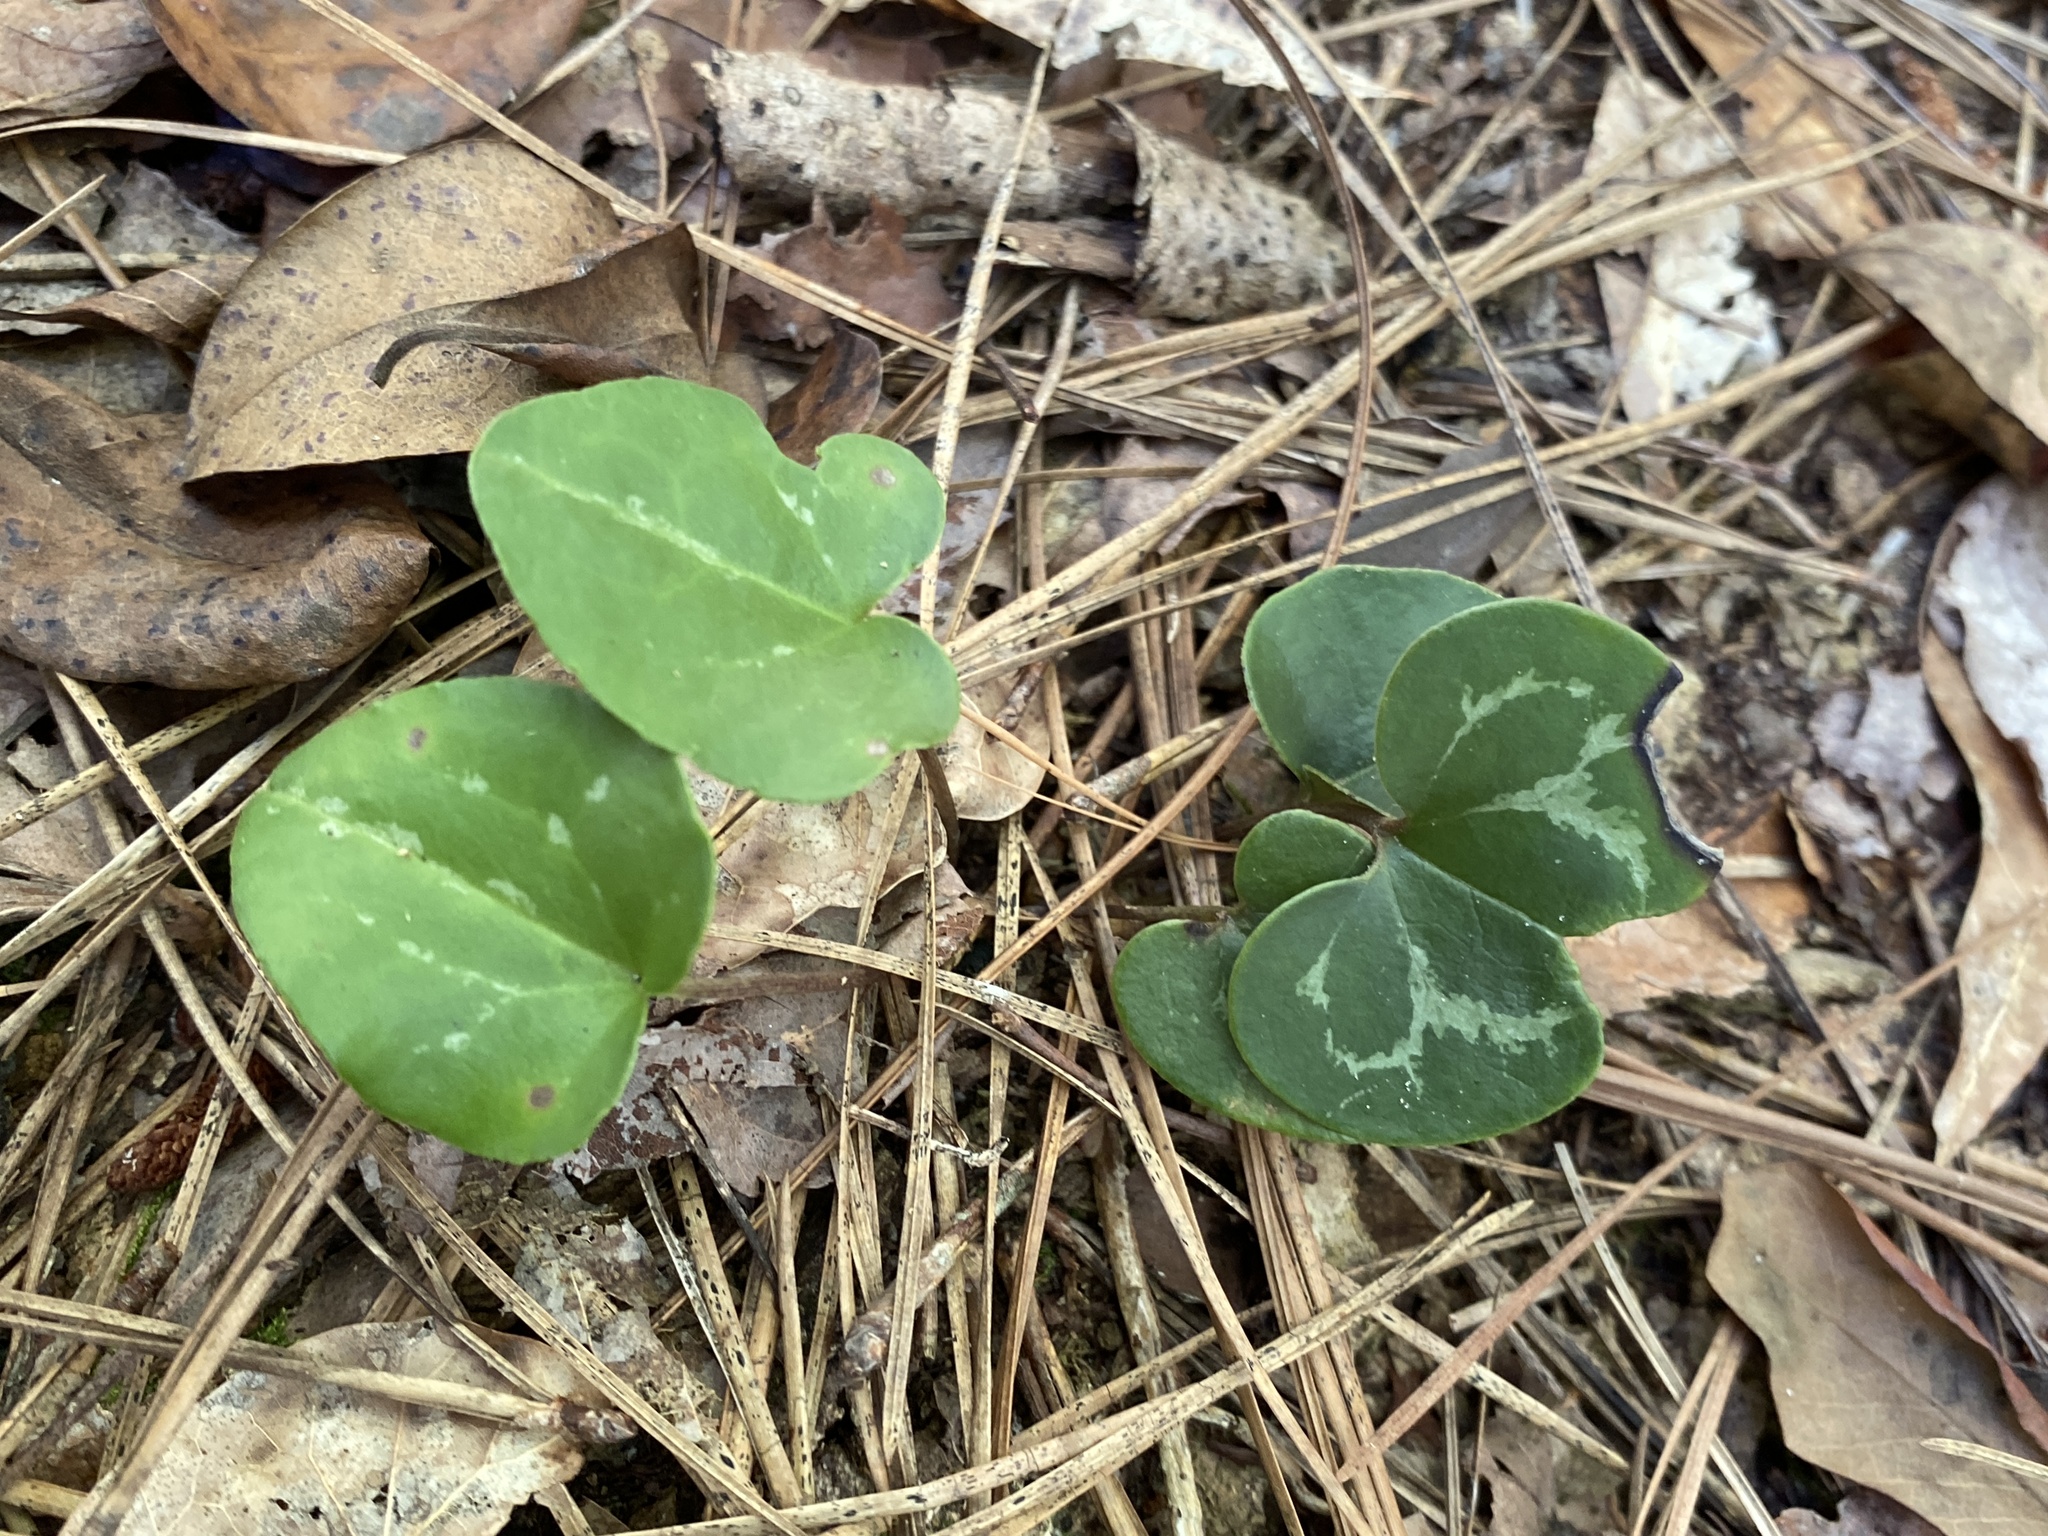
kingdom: Plantae
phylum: Tracheophyta
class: Magnoliopsida
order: Piperales
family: Aristolochiaceae
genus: Hexastylis
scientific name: Hexastylis sorriei
